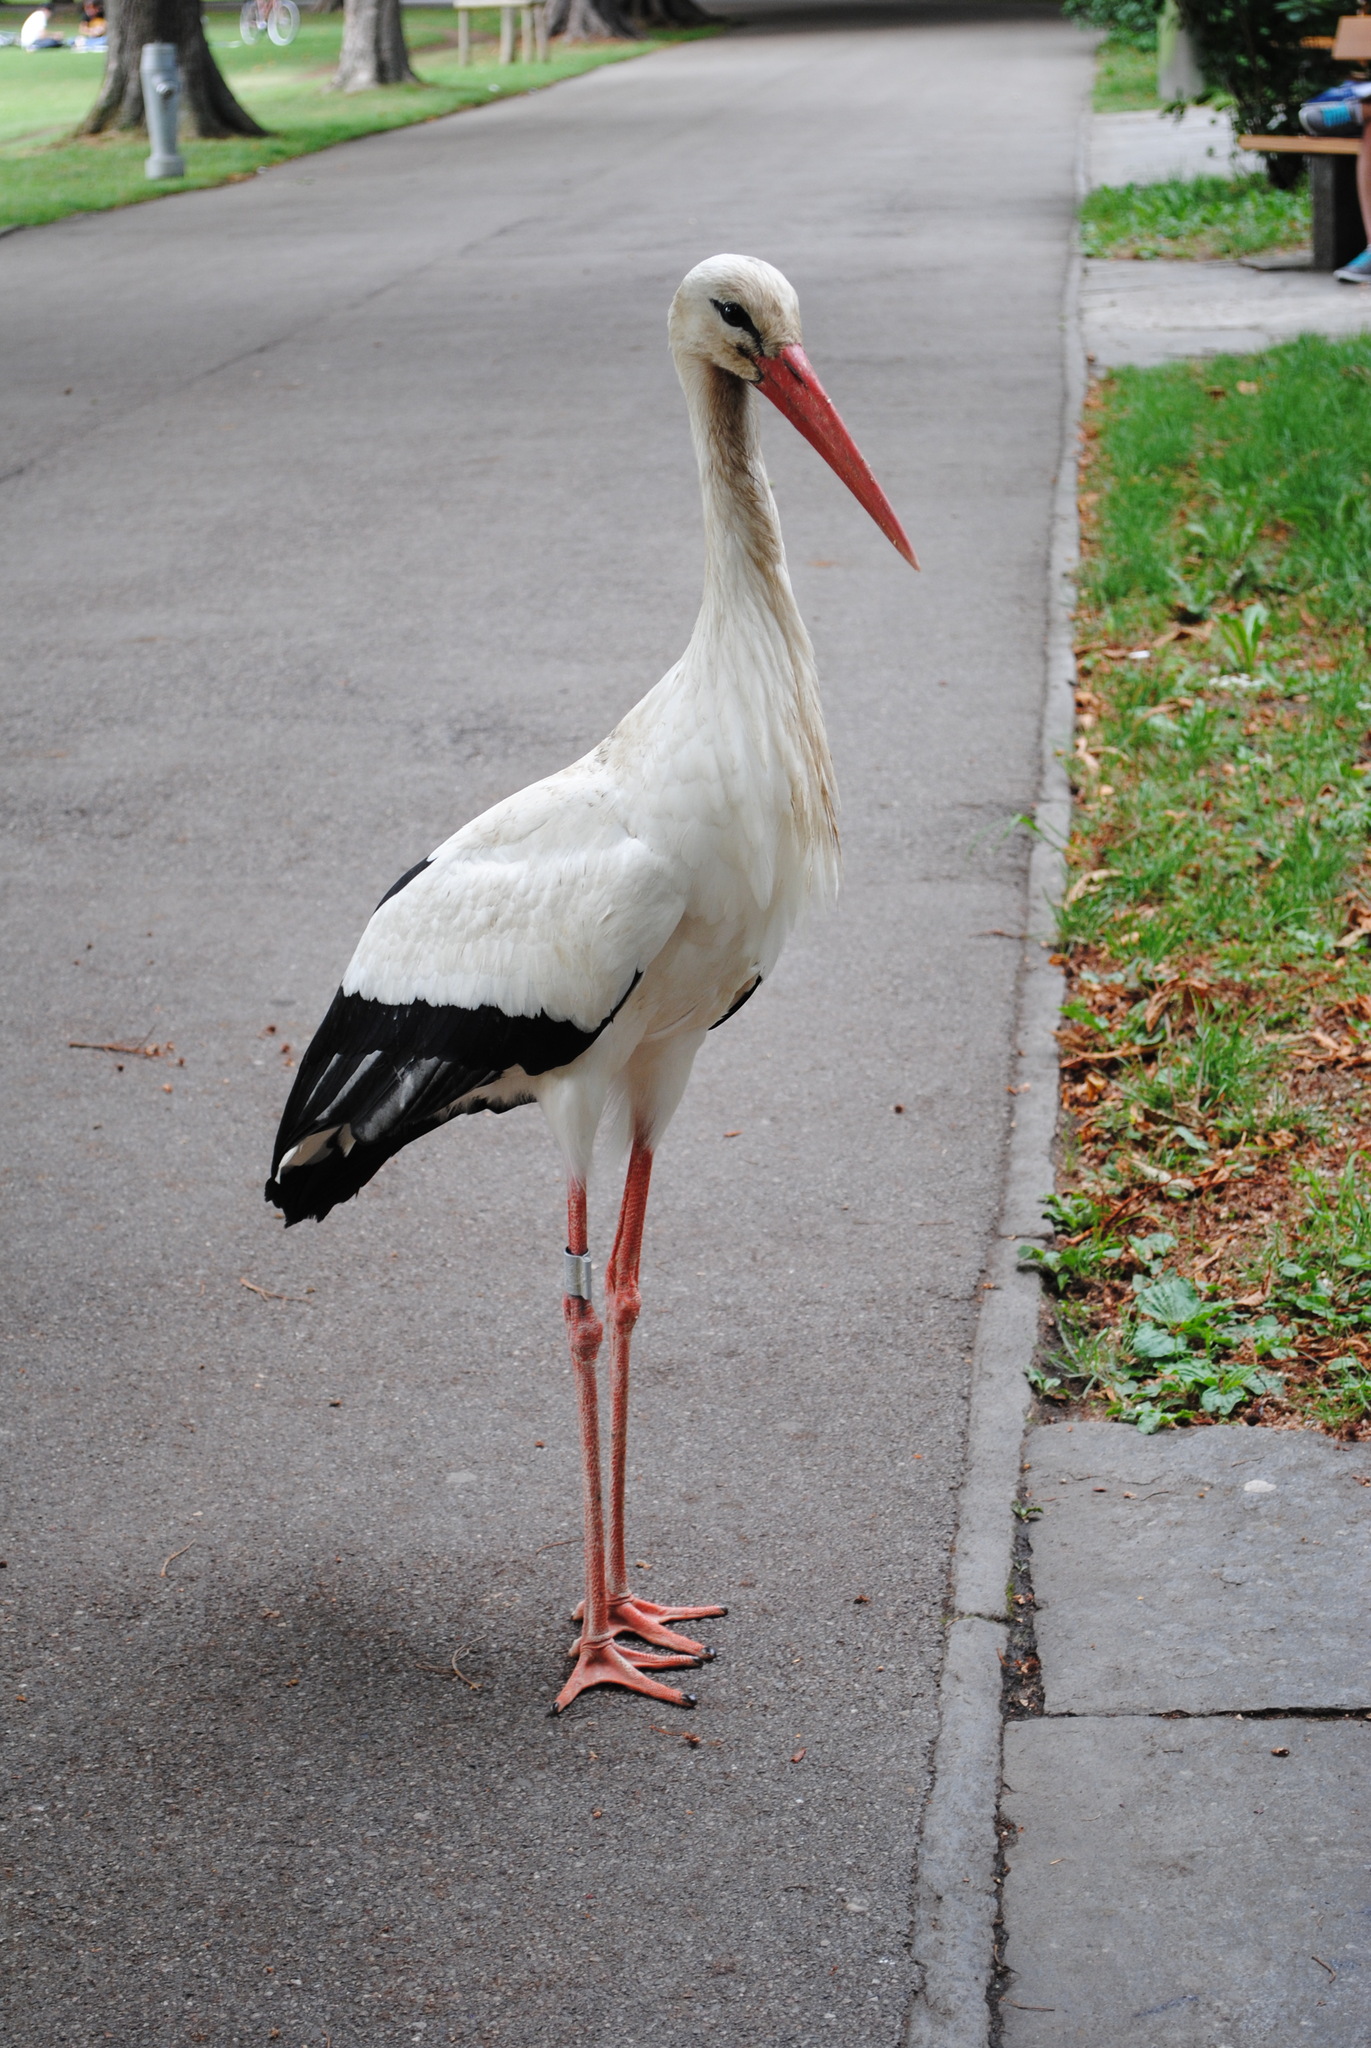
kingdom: Animalia
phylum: Chordata
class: Aves
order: Ciconiiformes
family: Ciconiidae
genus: Ciconia
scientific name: Ciconia ciconia
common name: White stork
